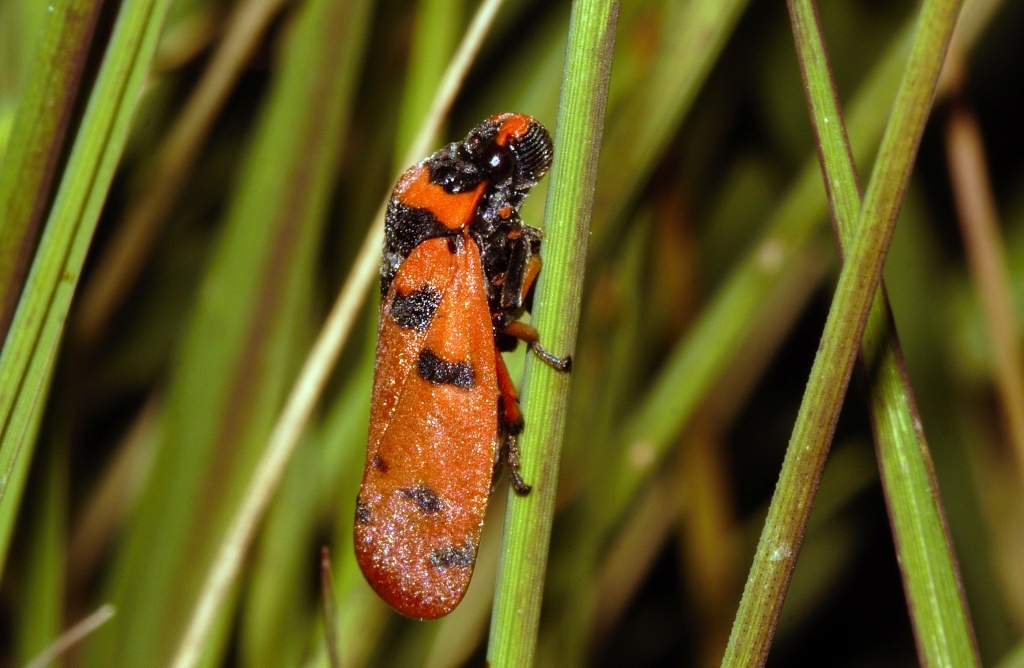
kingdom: Animalia
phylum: Arthropoda
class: Insecta
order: Hemiptera
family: Cercopidae
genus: Locris
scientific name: Locris arithmetica
